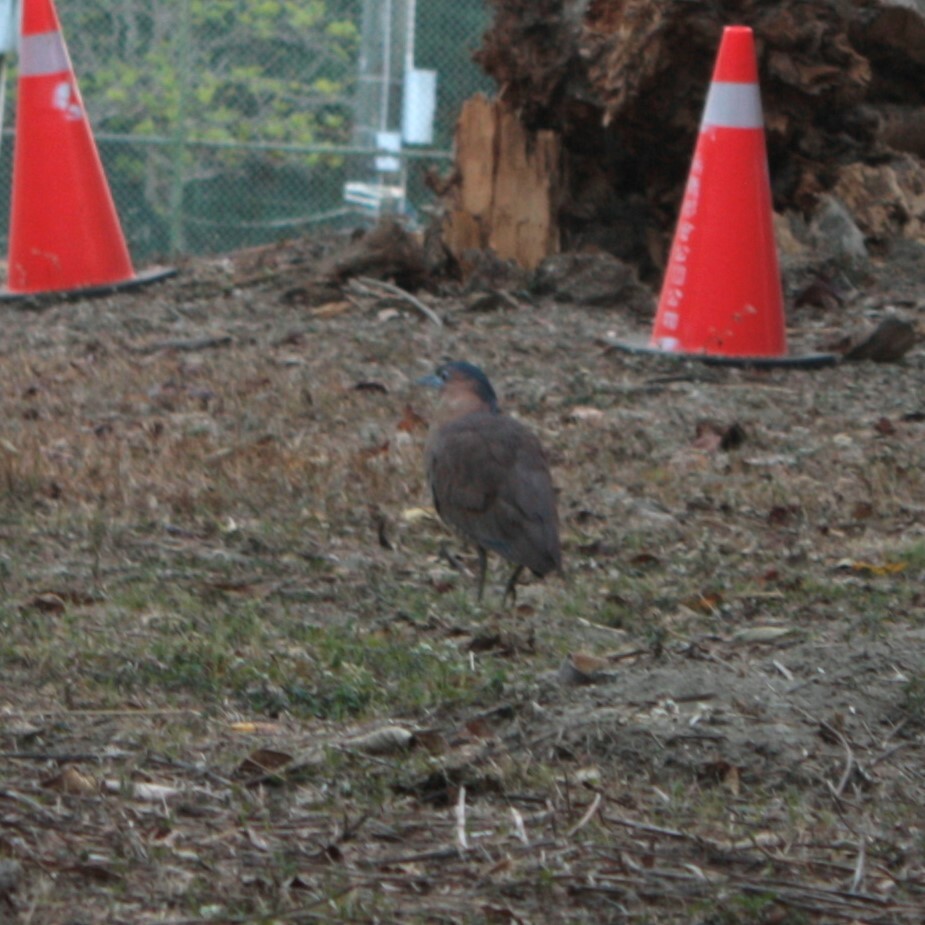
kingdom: Animalia
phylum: Chordata
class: Aves
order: Pelecaniformes
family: Ardeidae
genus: Gorsachius
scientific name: Gorsachius melanolophus
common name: Malayan night heron
